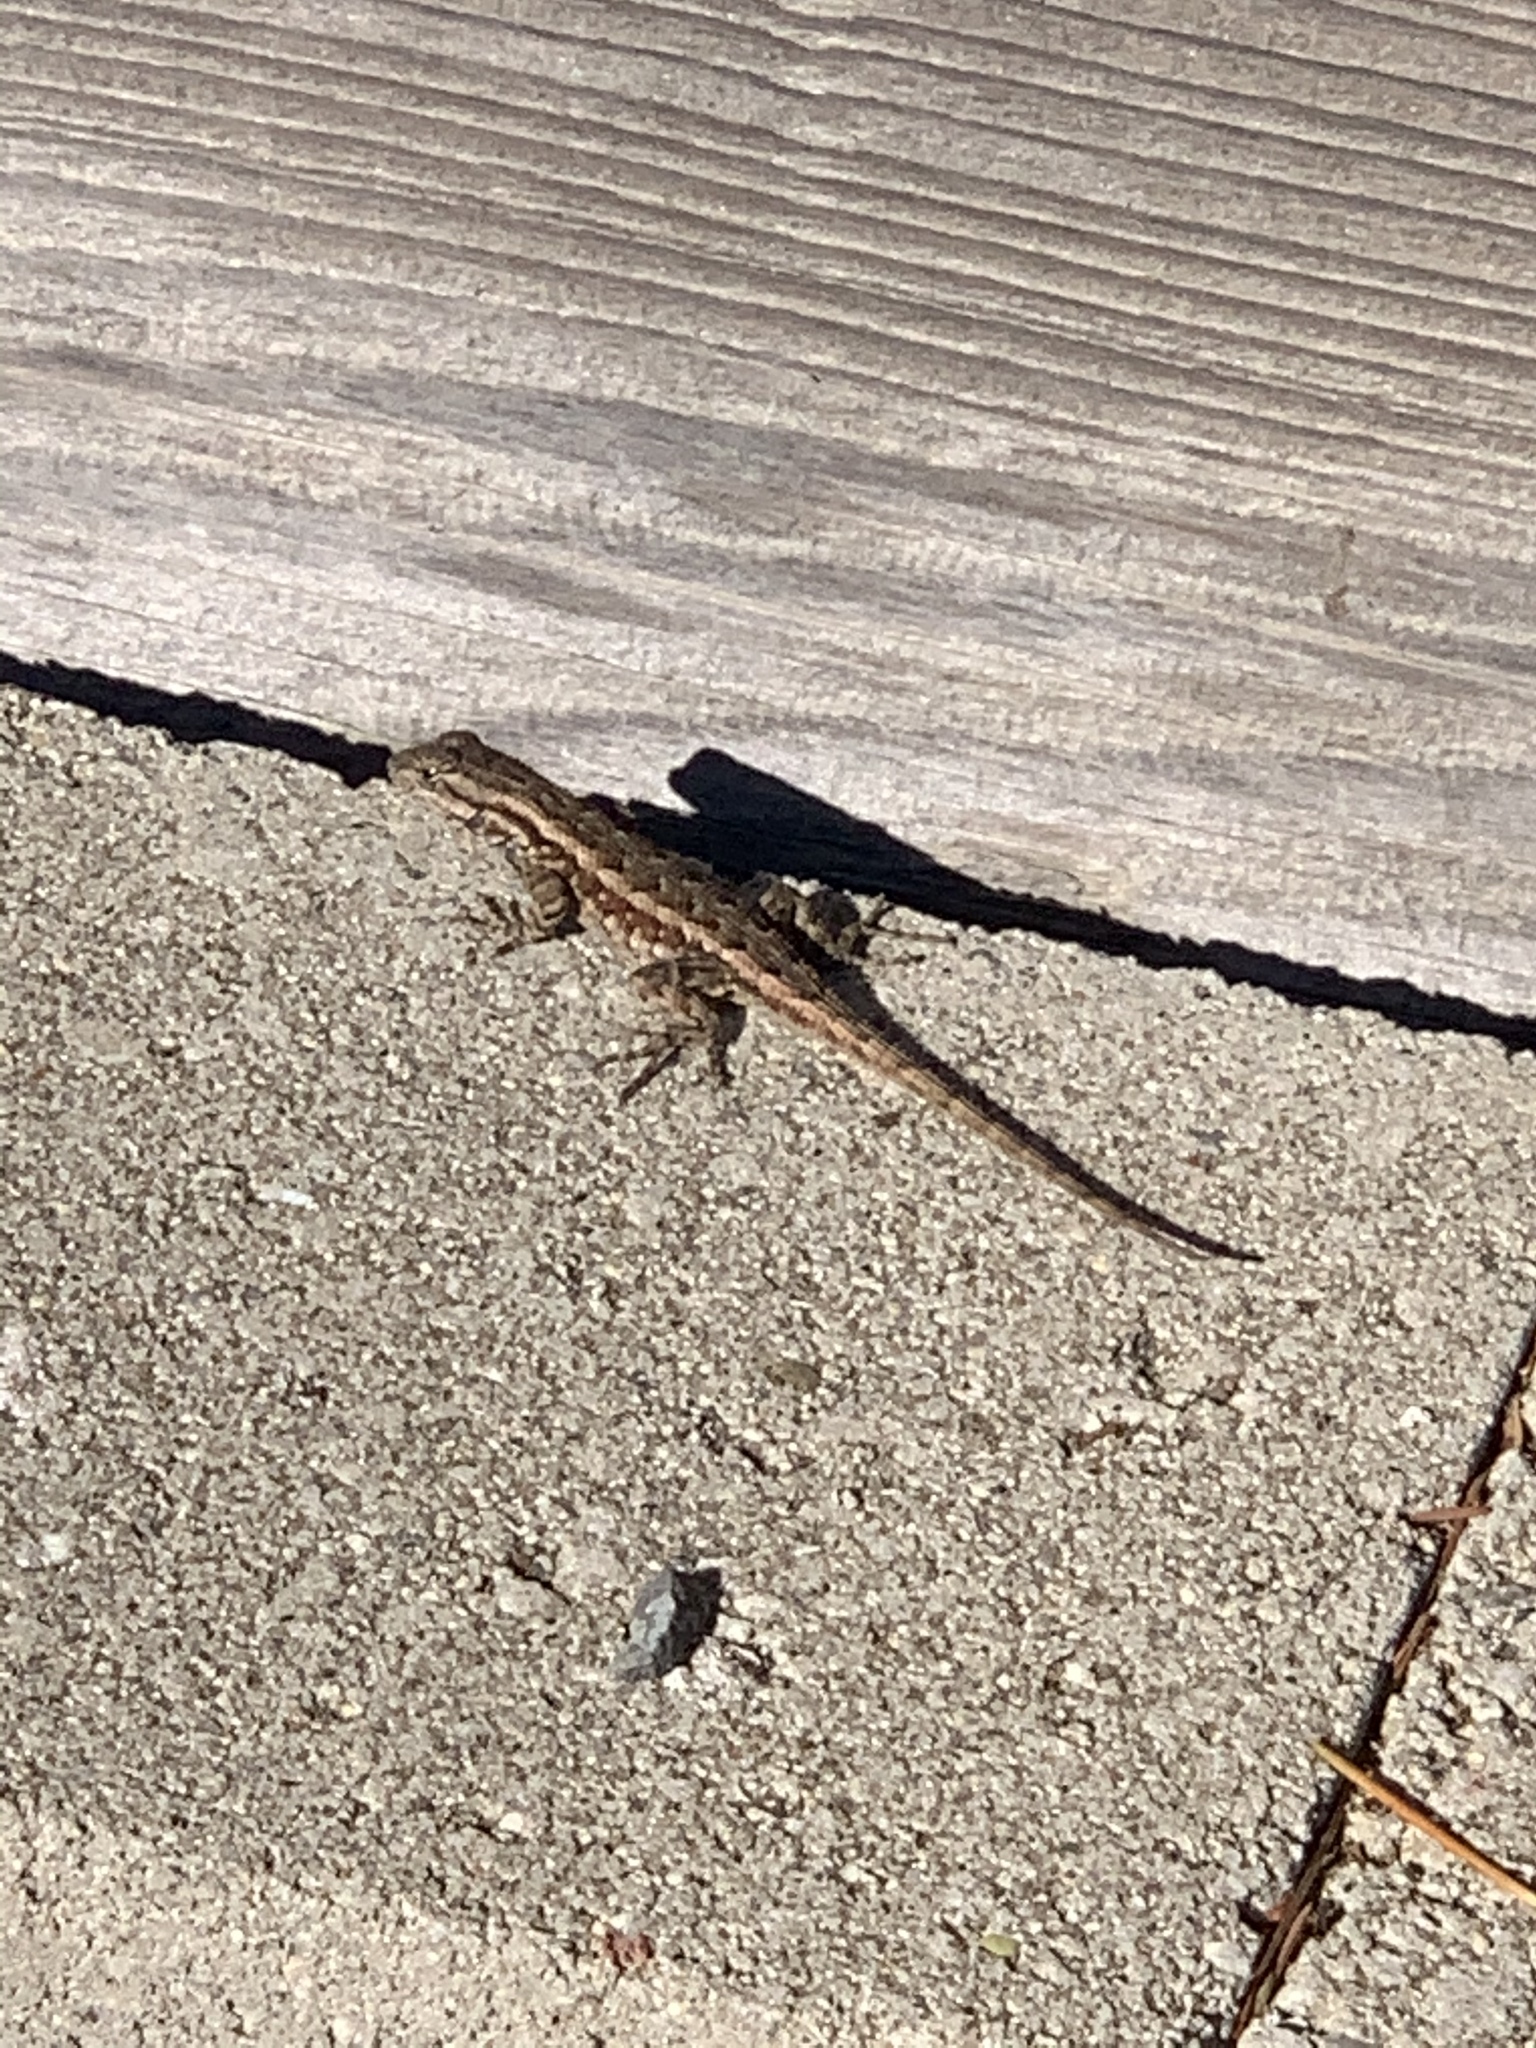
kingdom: Animalia
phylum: Chordata
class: Squamata
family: Phrynosomatidae
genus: Sceloporus
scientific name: Sceloporus occidentalis
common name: Western fence lizard
